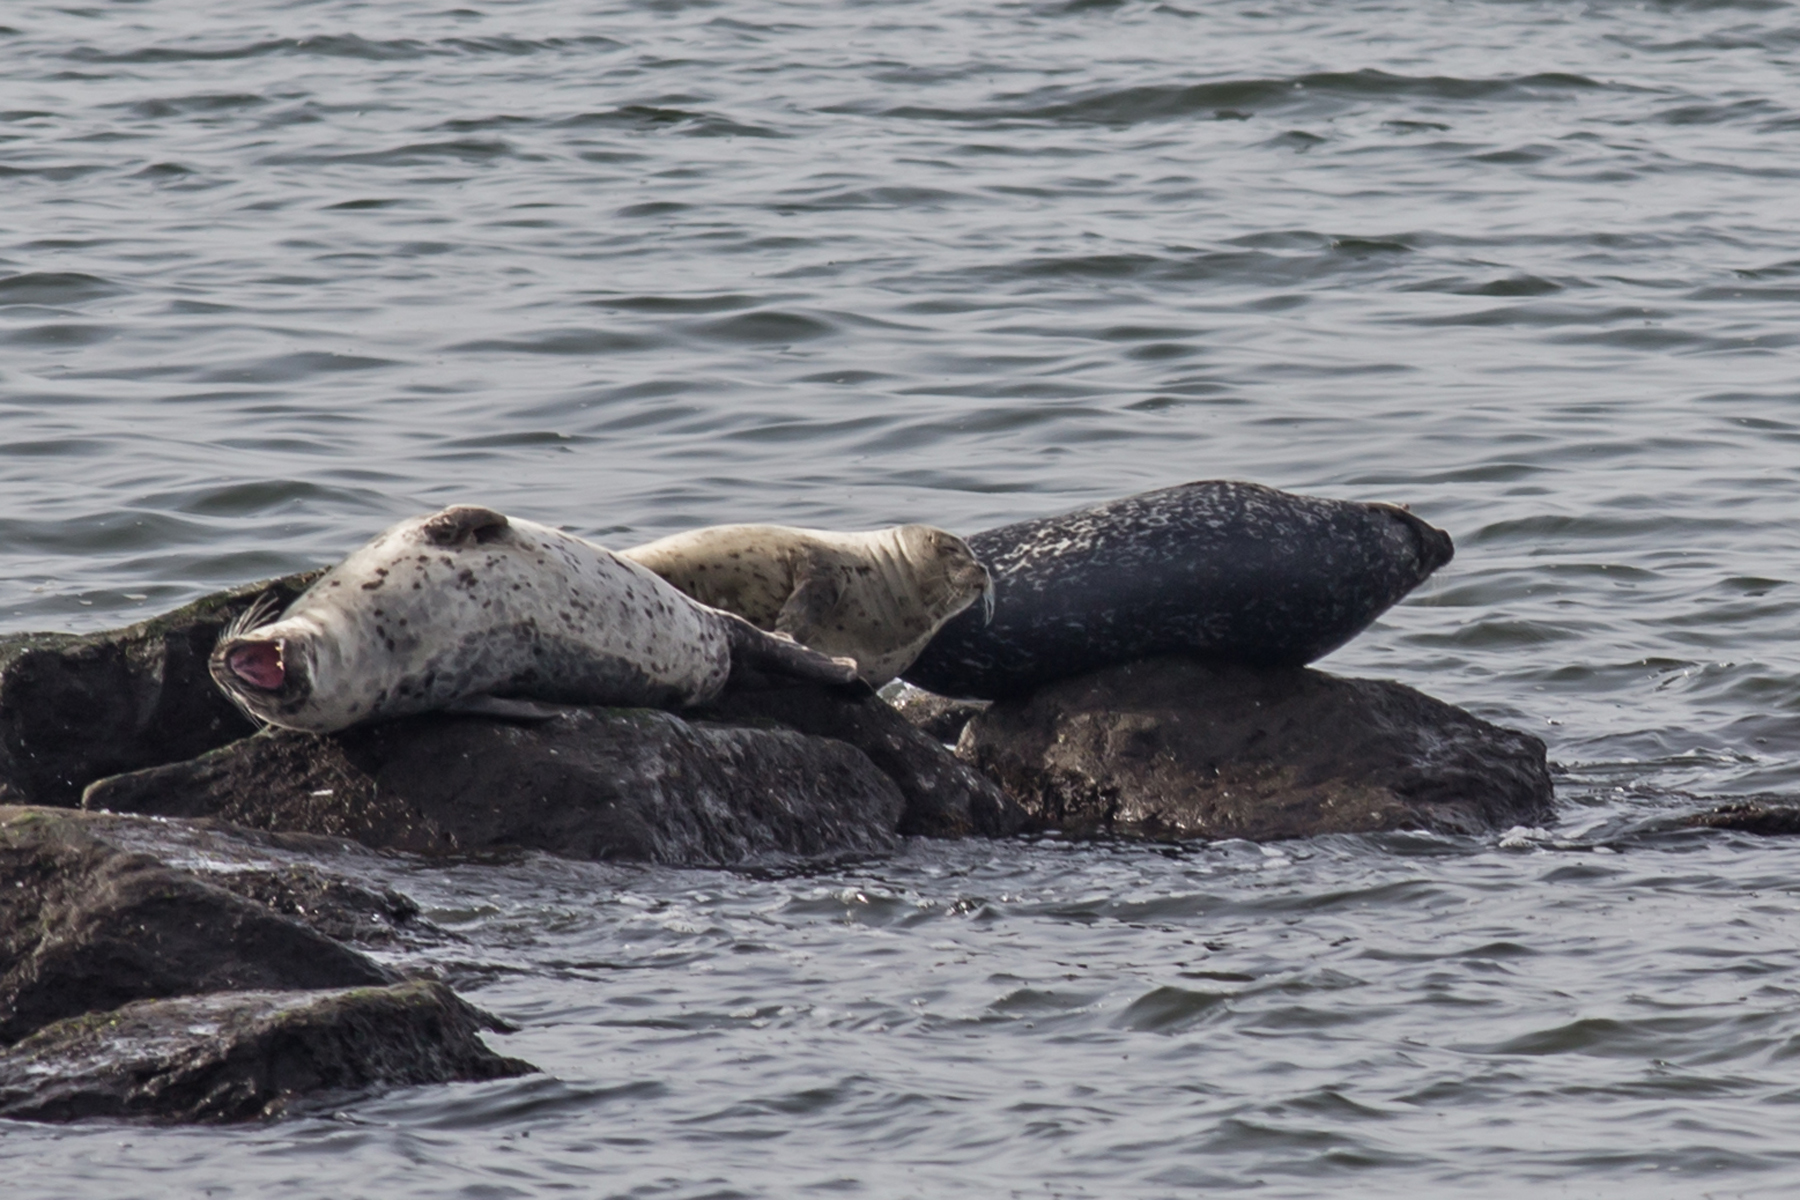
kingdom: Animalia
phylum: Chordata
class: Mammalia
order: Carnivora
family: Phocidae
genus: Phoca
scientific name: Phoca vitulina
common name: Harbor seal
